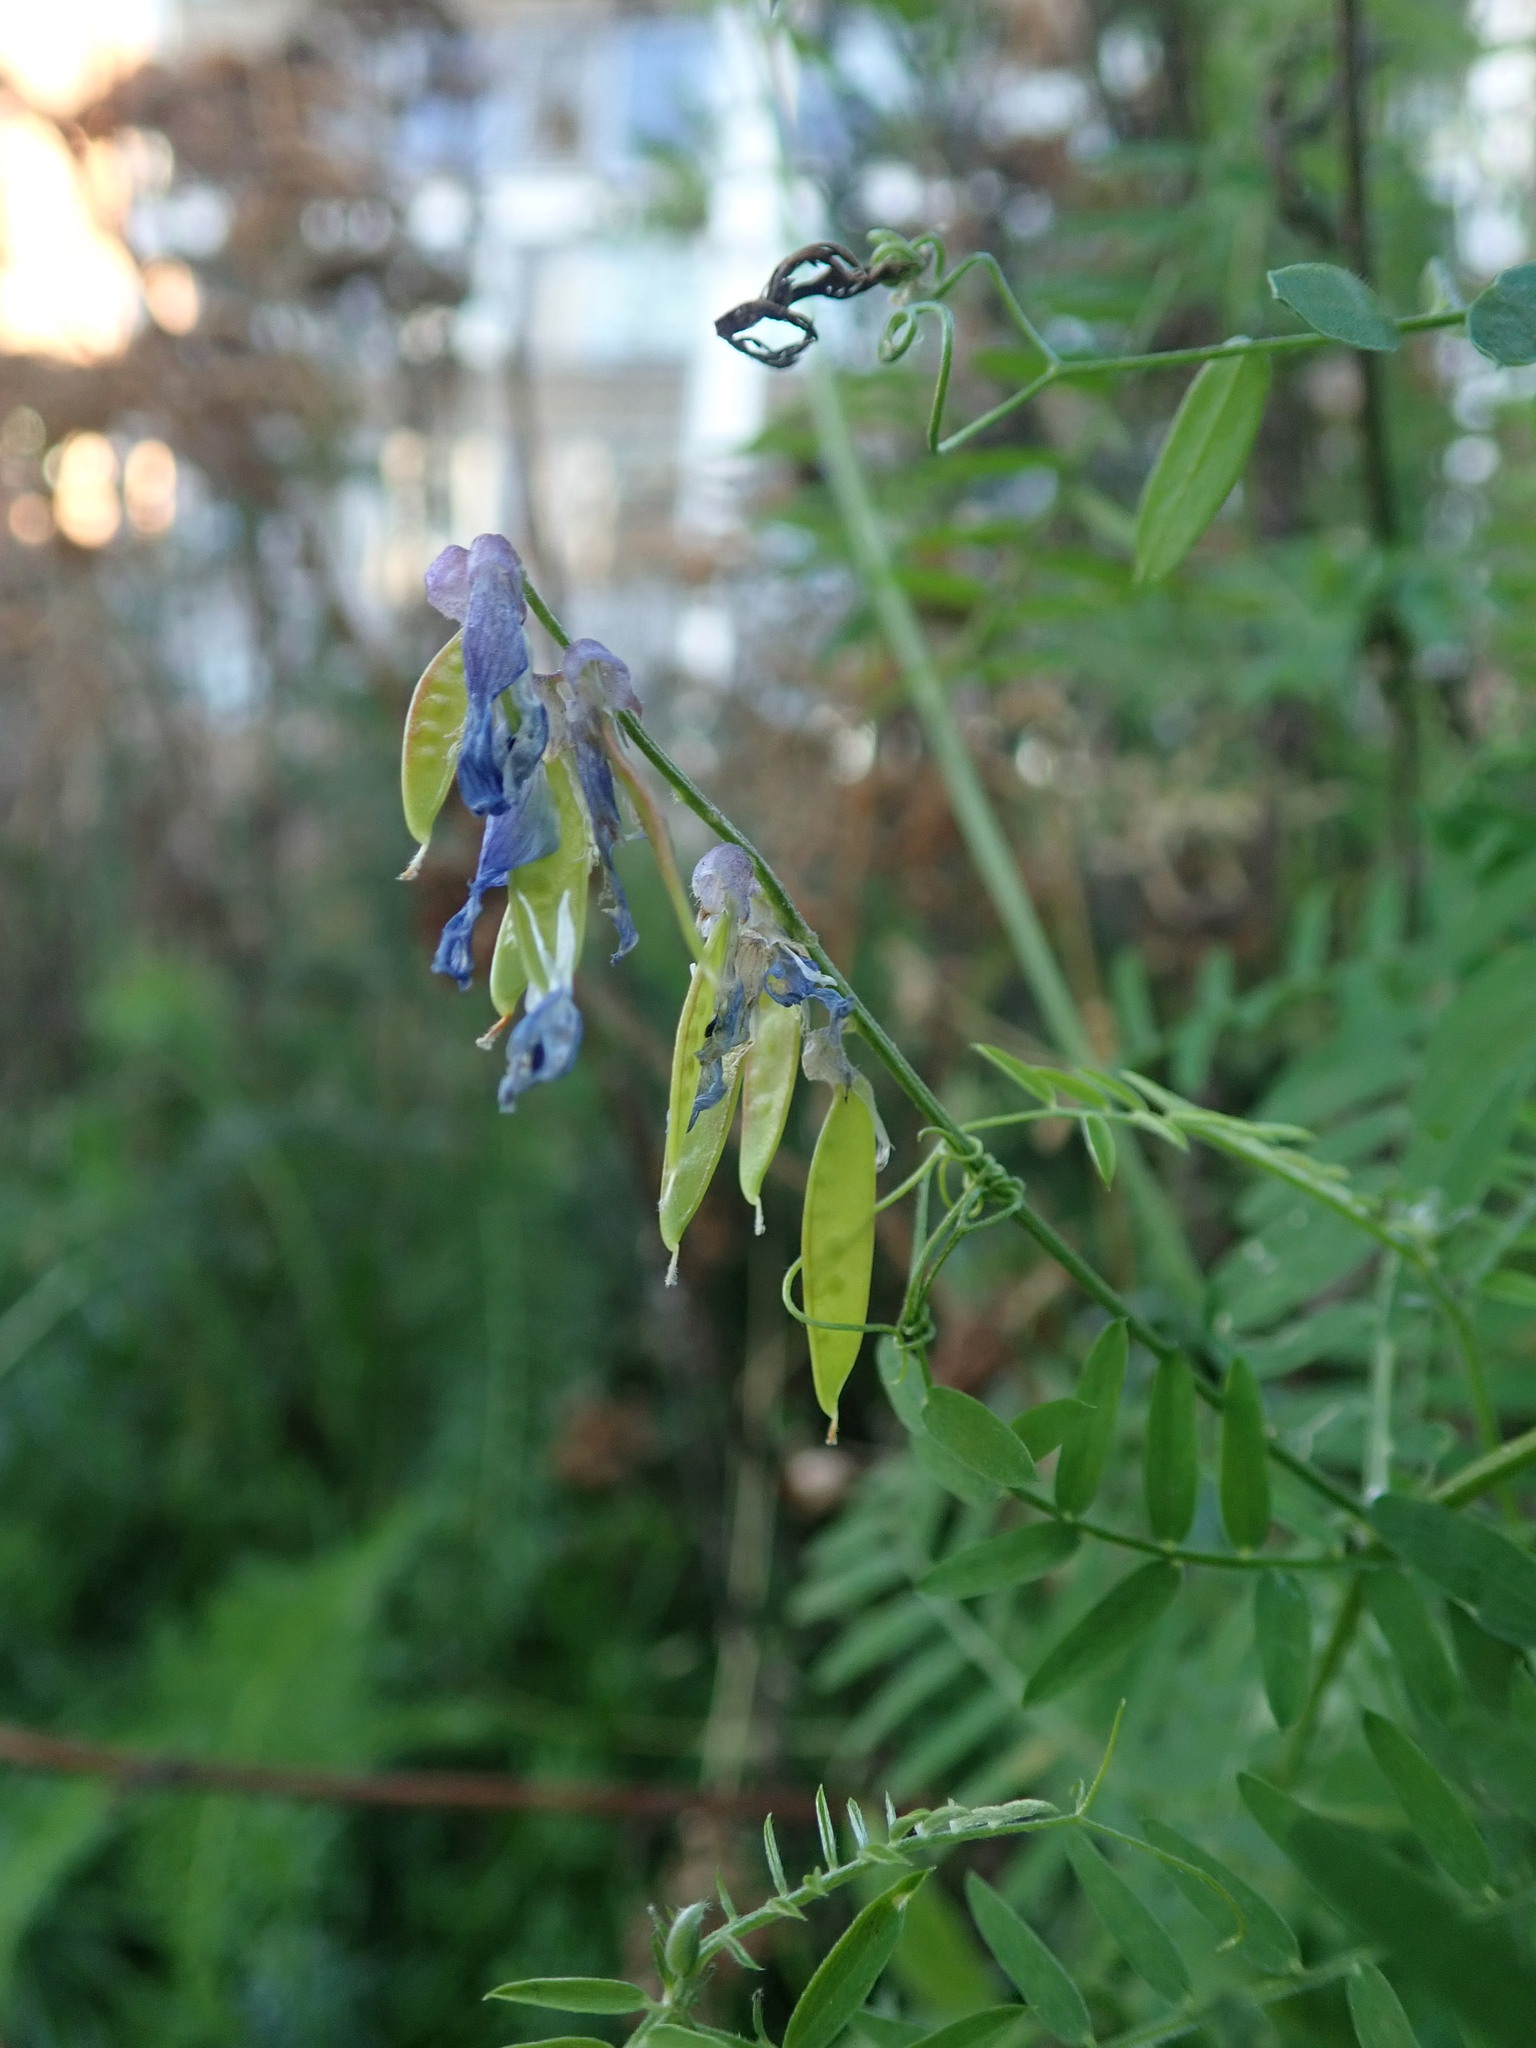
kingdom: Plantae
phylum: Tracheophyta
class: Magnoliopsida
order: Fabales
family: Fabaceae
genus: Vicia
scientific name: Vicia cracca
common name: Bird vetch
